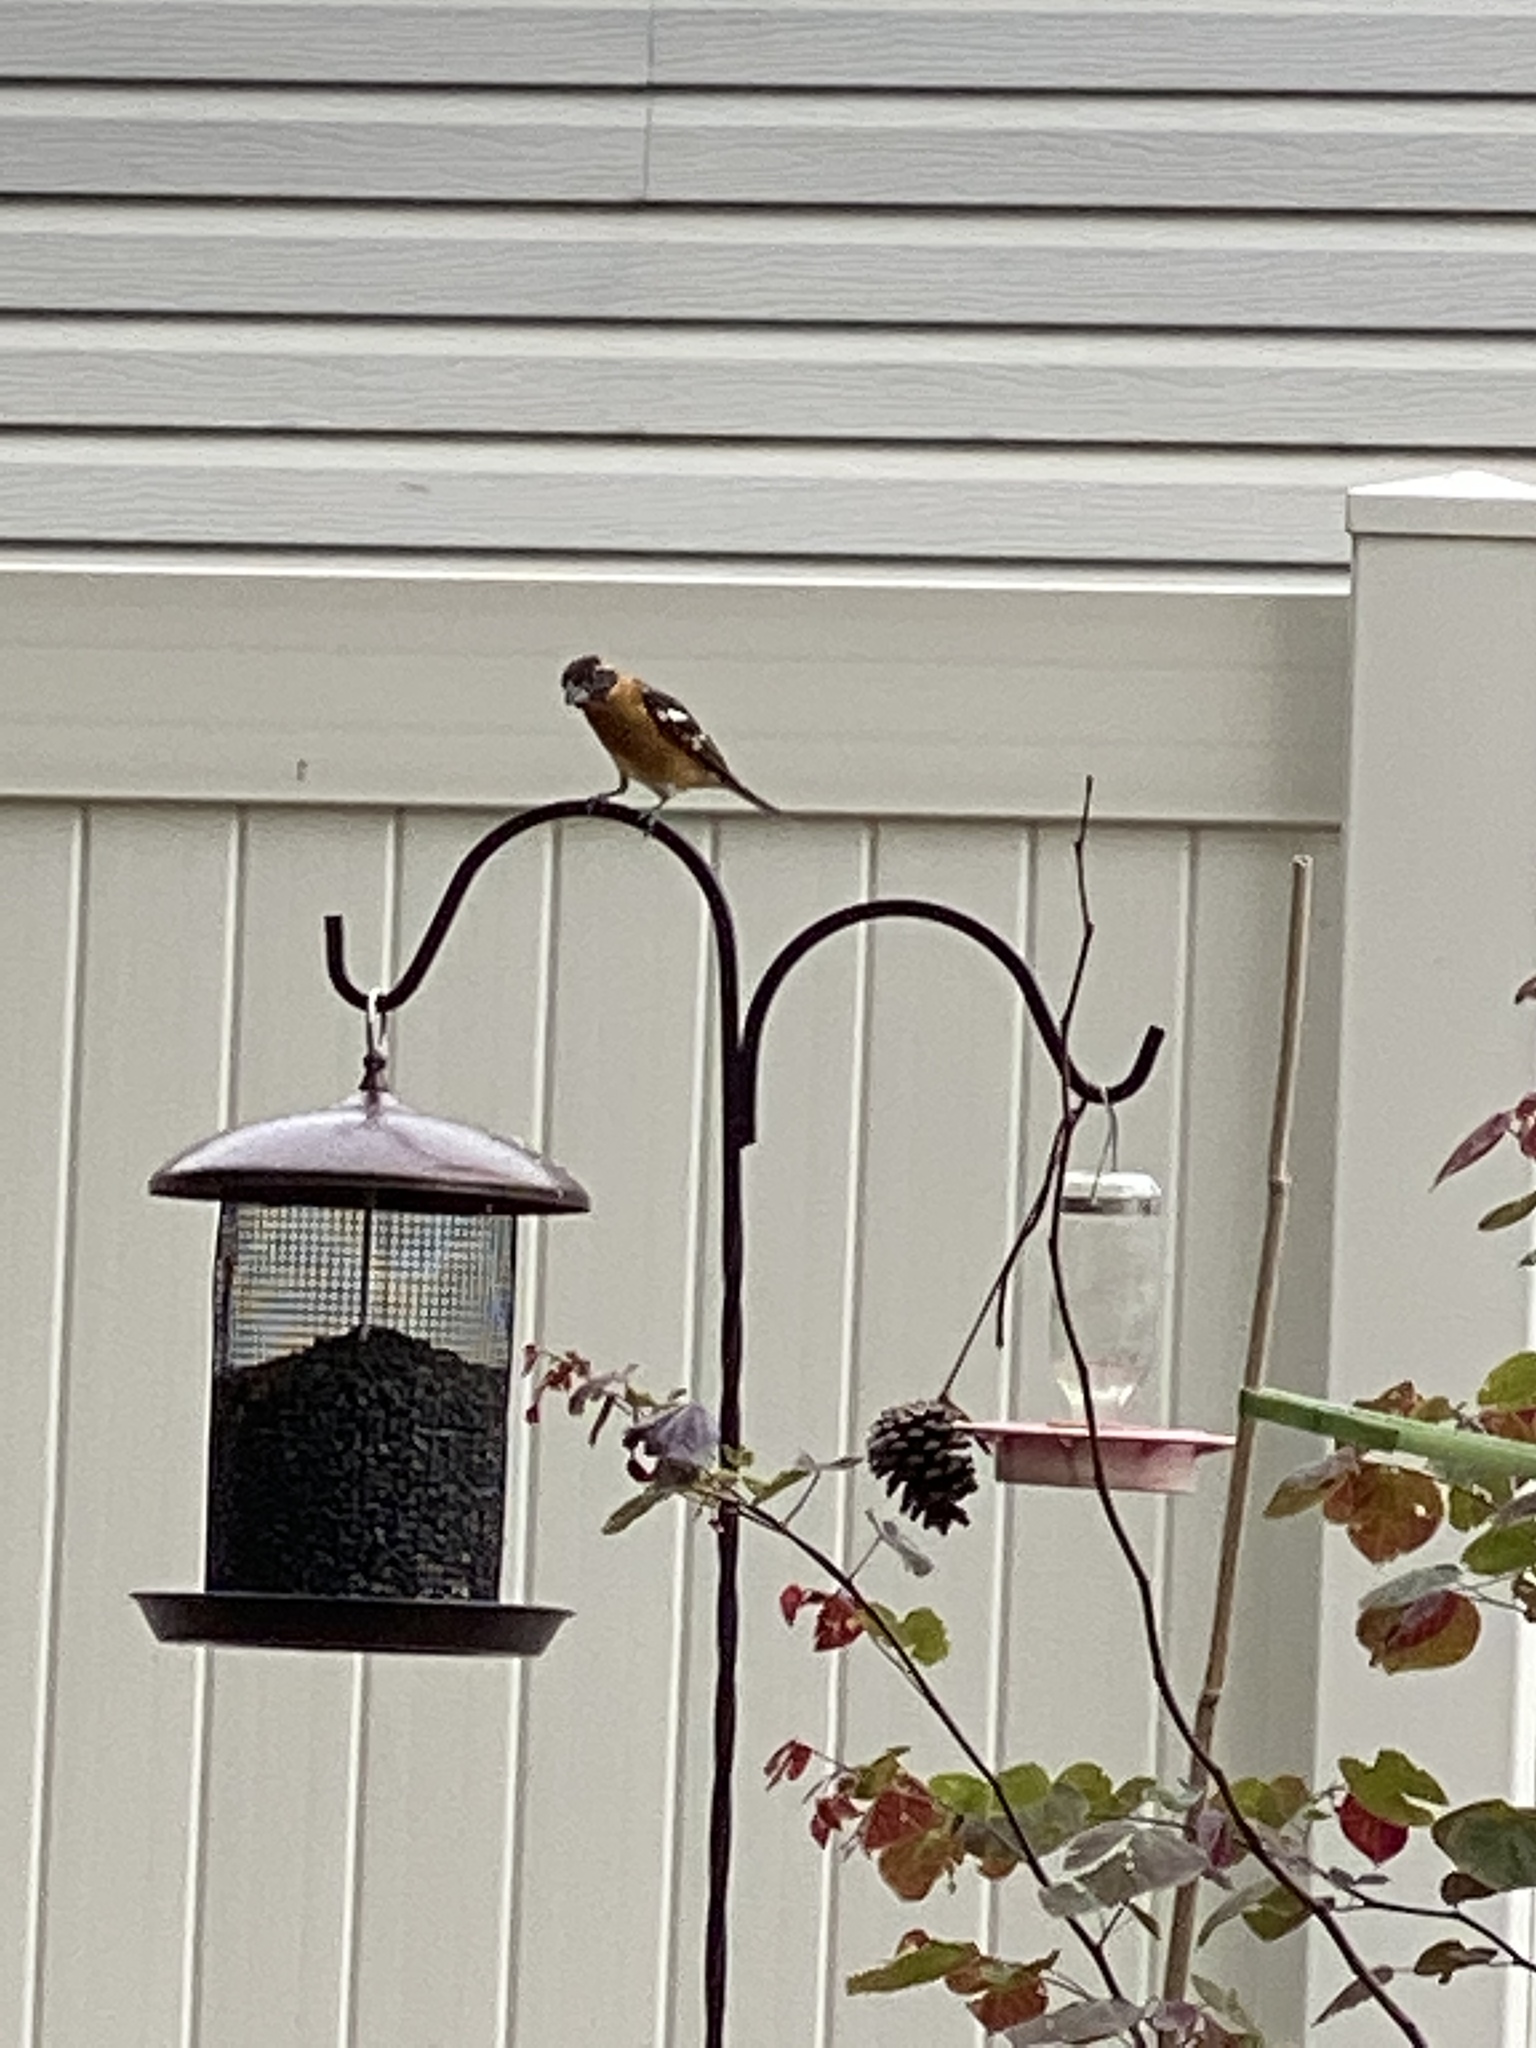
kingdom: Animalia
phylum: Chordata
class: Aves
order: Passeriformes
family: Cardinalidae
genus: Pheucticus
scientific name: Pheucticus melanocephalus
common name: Black-headed grosbeak
